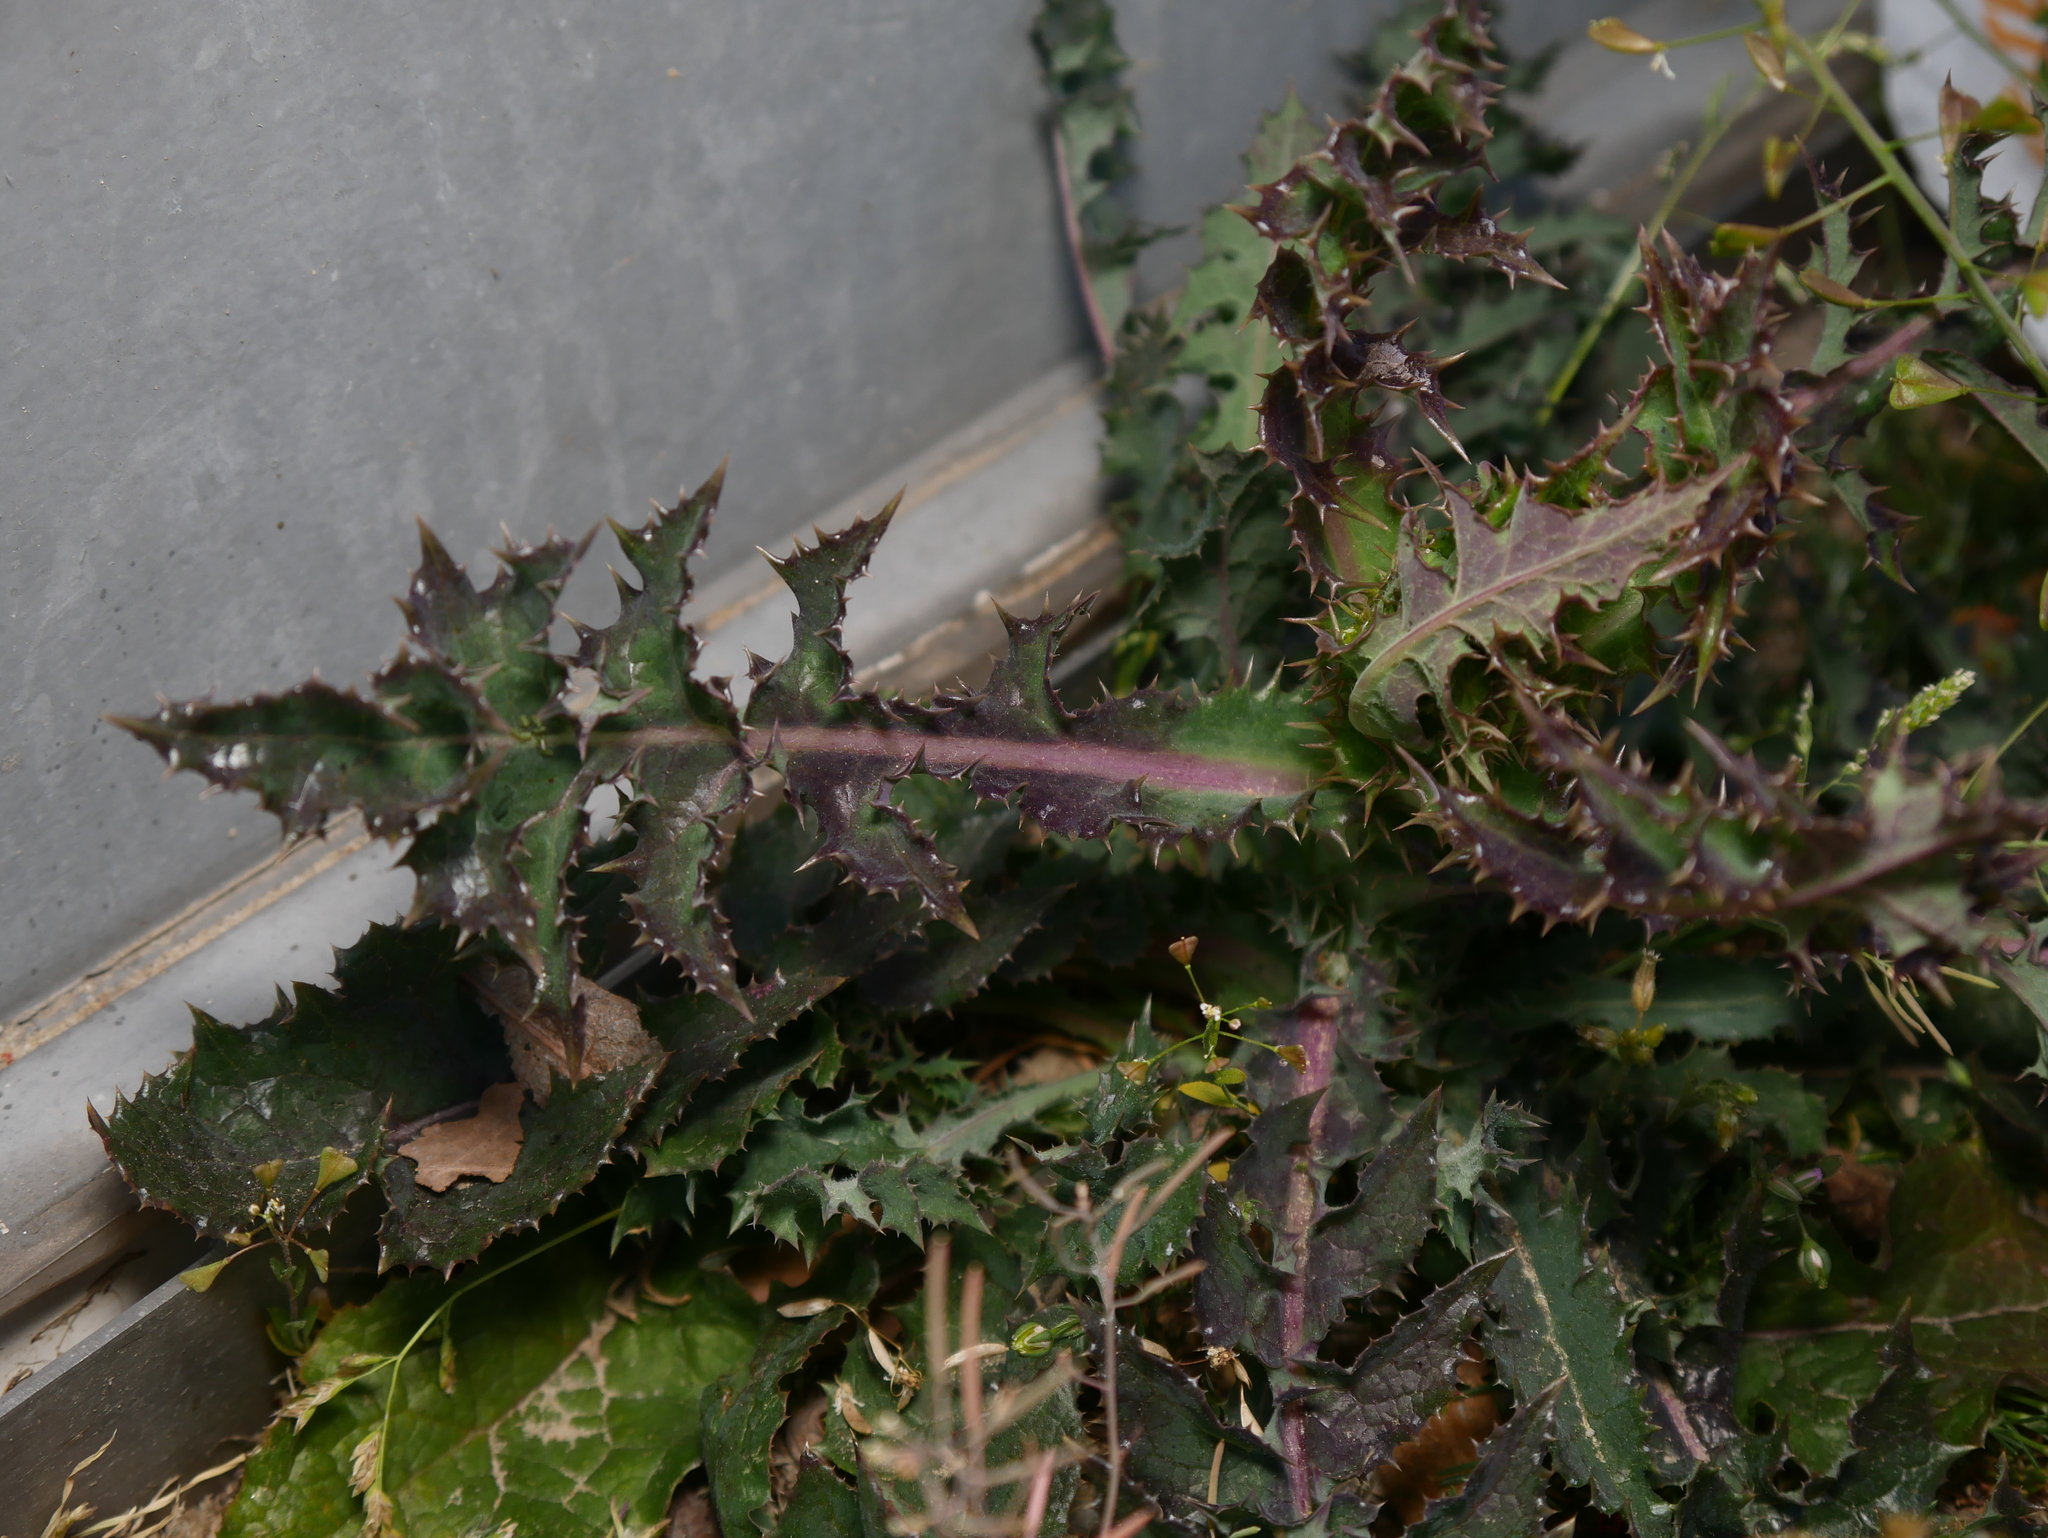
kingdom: Plantae
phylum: Tracheophyta
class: Magnoliopsida
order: Asterales
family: Asteraceae
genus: Sonchus
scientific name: Sonchus asper
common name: Prickly sow-thistle
